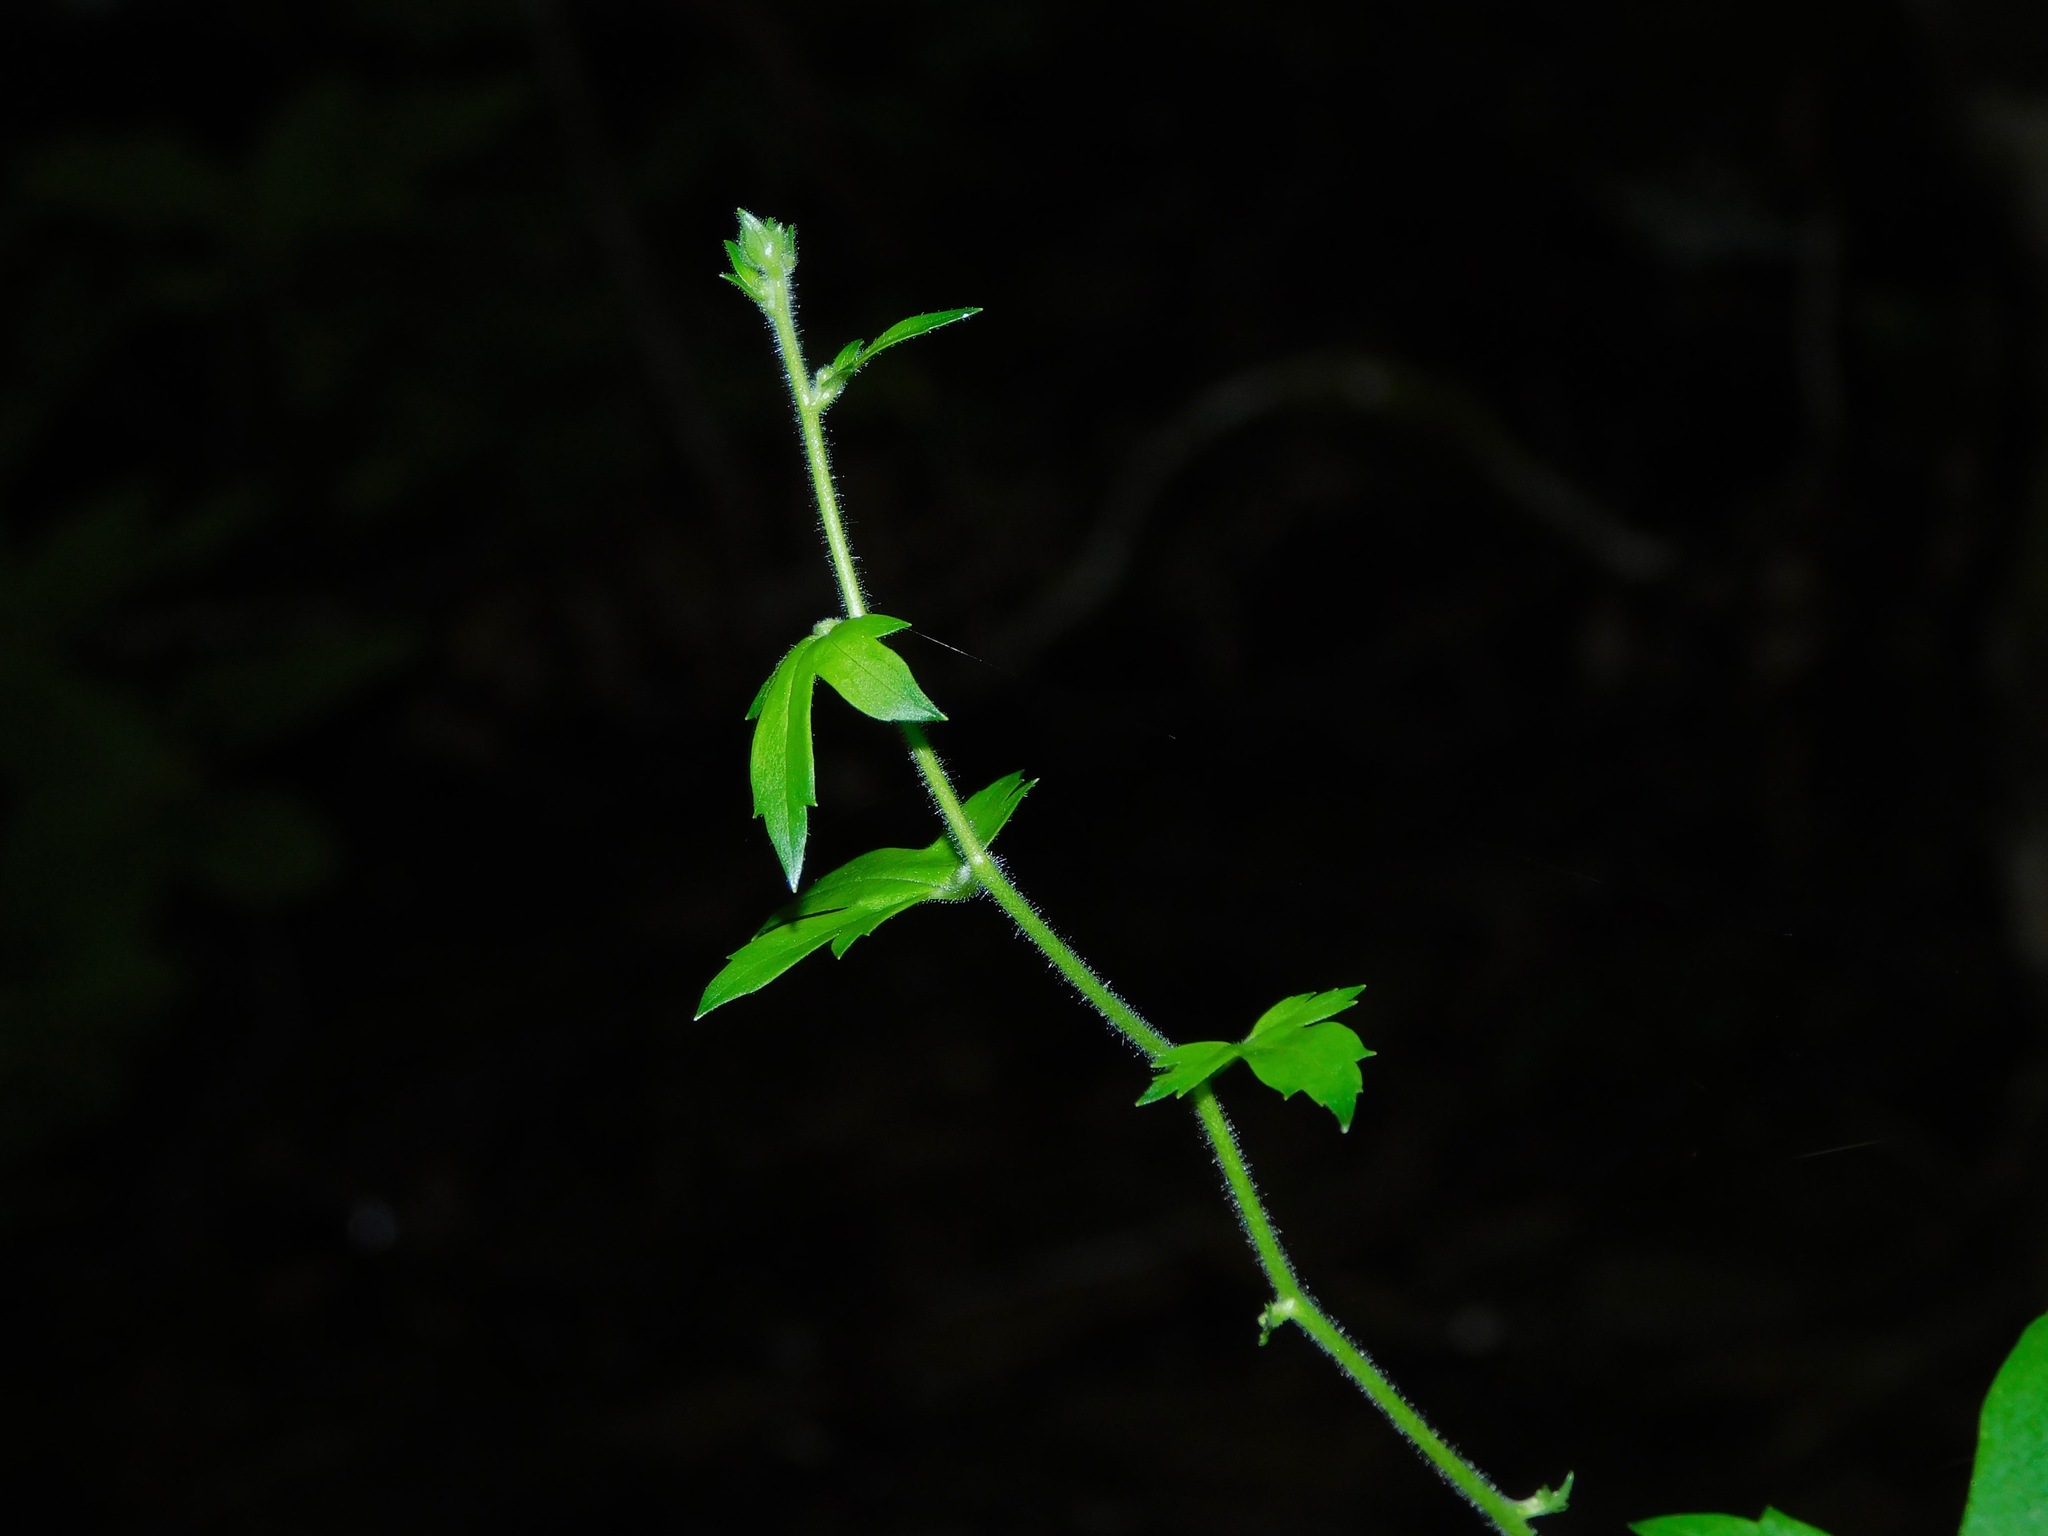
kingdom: Plantae
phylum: Tracheophyta
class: Magnoliopsida
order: Ranunculales
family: Ranunculaceae
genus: Aconitum
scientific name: Aconitum reclinatum
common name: Trailing wolfsbane
